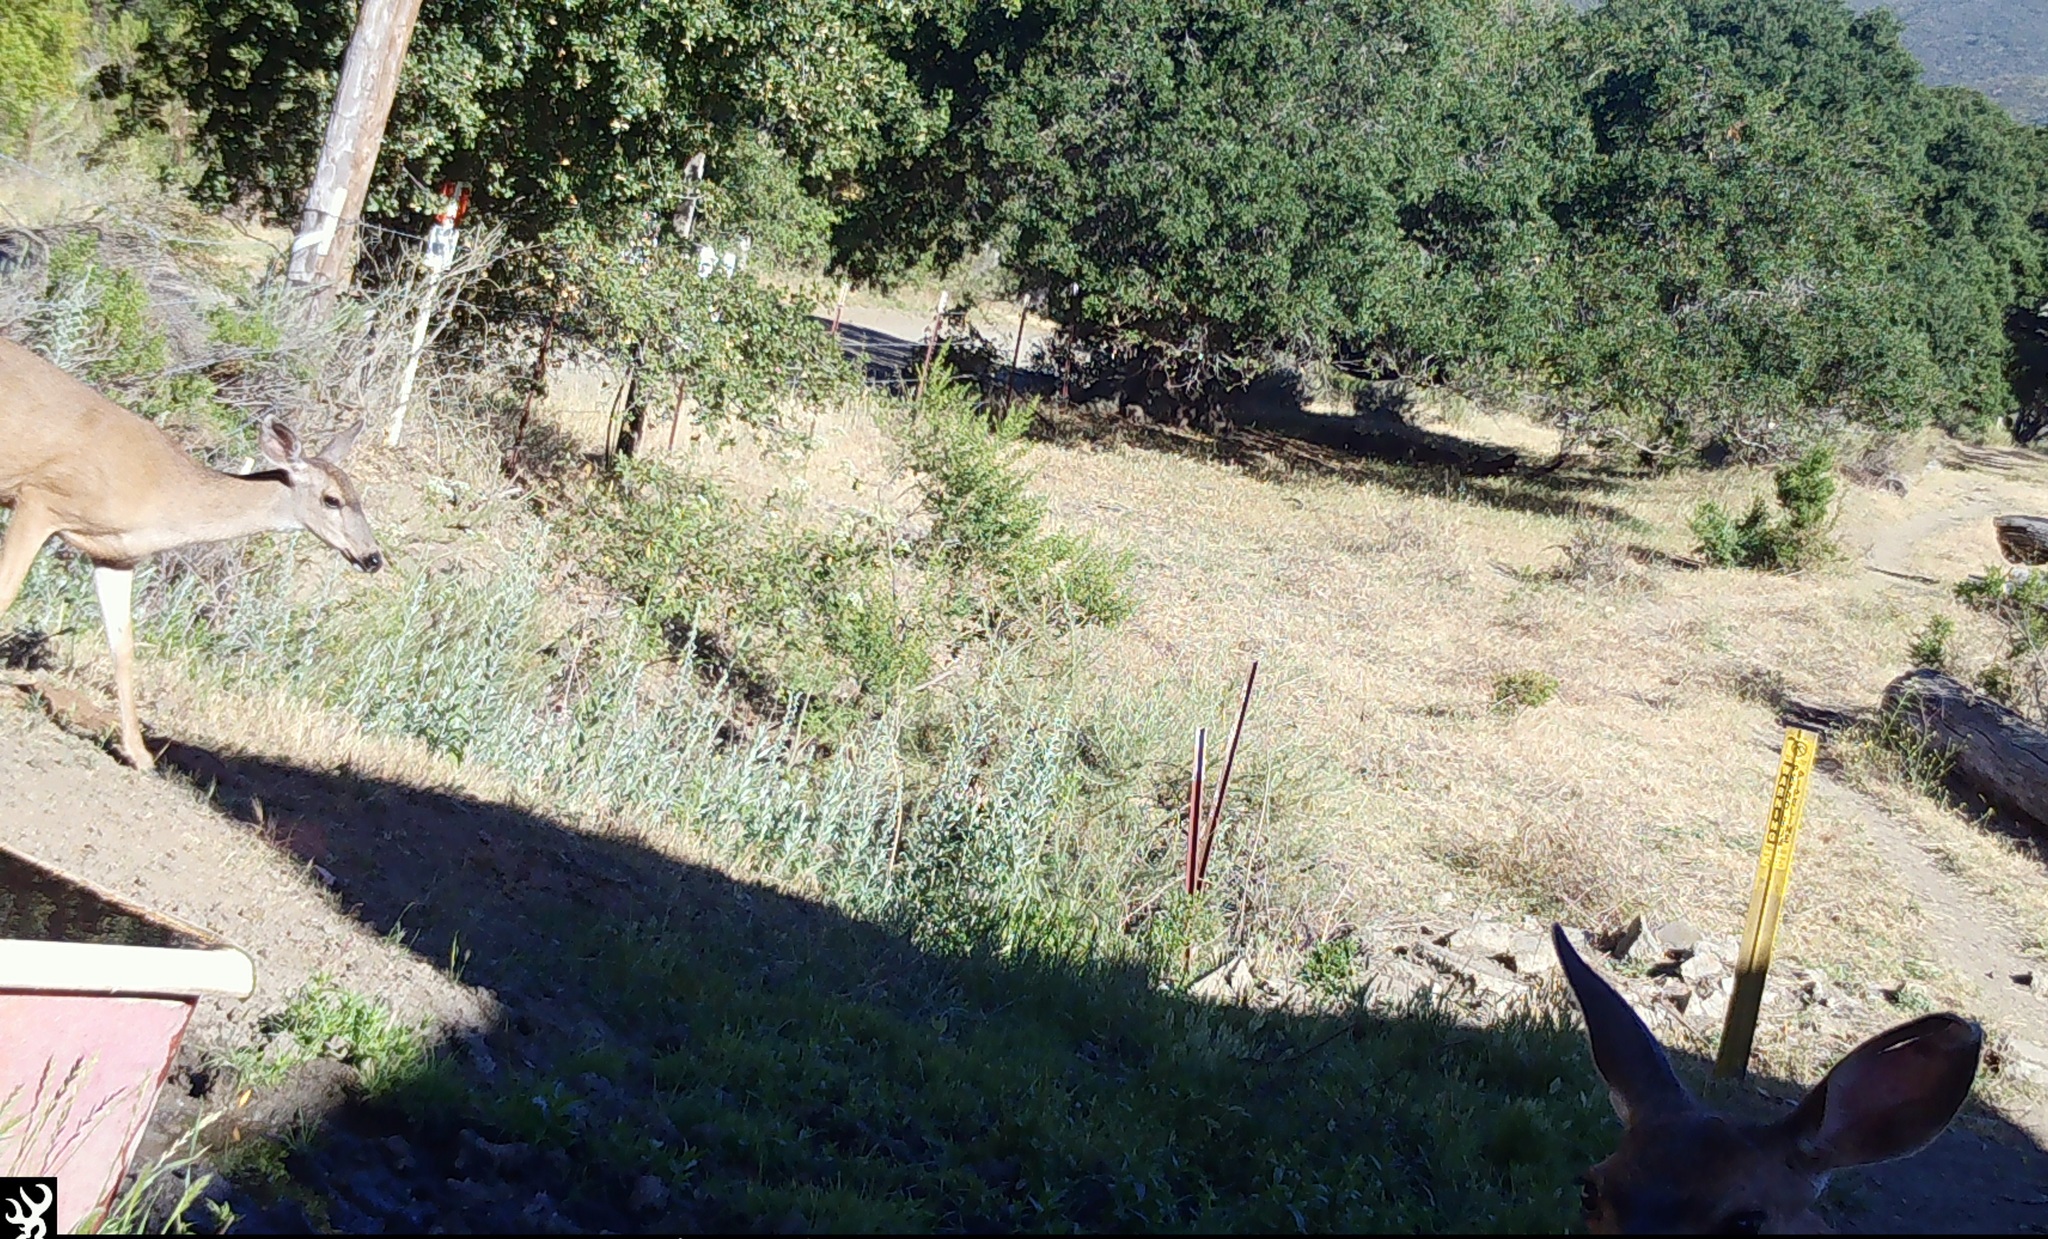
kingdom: Animalia
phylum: Chordata
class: Mammalia
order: Artiodactyla
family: Cervidae
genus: Odocoileus
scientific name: Odocoileus hemionus
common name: Mule deer
